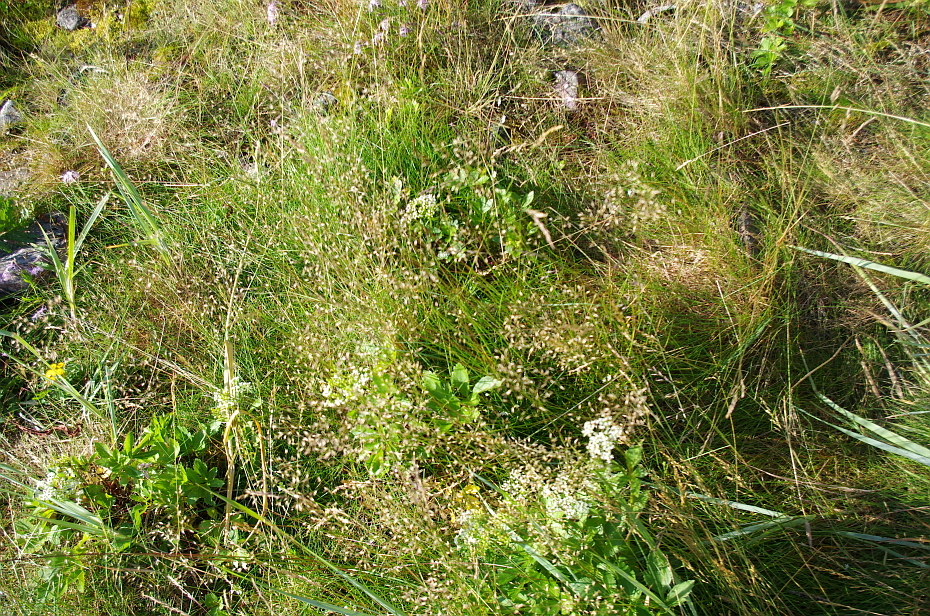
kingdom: Plantae
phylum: Tracheophyta
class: Liliopsida
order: Poales
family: Poaceae
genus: Avenella
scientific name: Avenella flexuosa
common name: Wavy hairgrass
